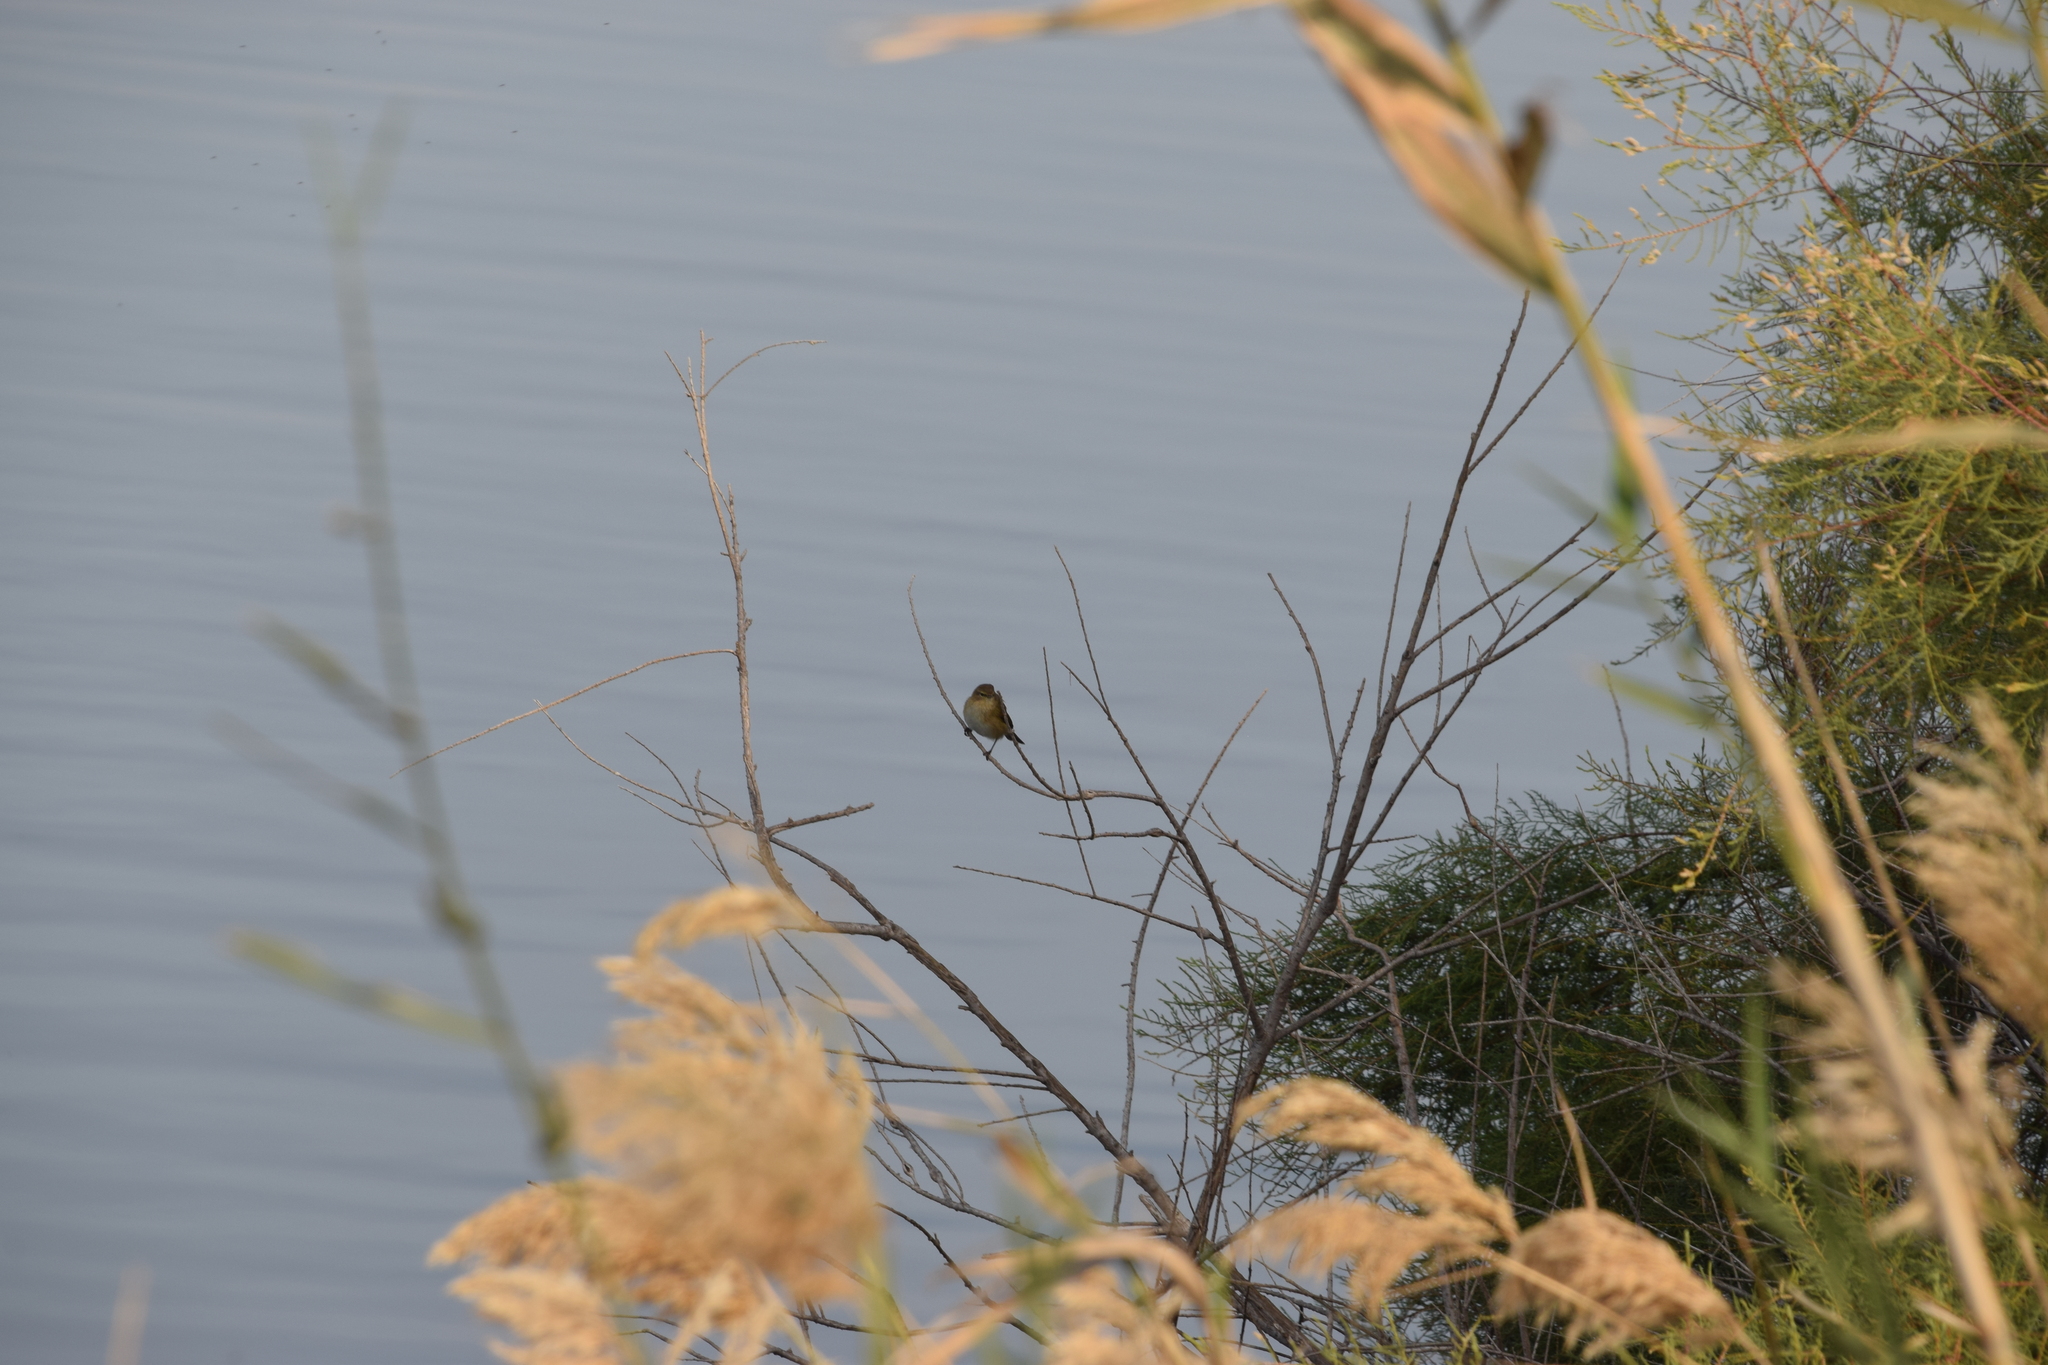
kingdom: Animalia
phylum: Chordata
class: Aves
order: Passeriformes
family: Phylloscopidae
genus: Phylloscopus
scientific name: Phylloscopus collybita
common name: Common chiffchaff
